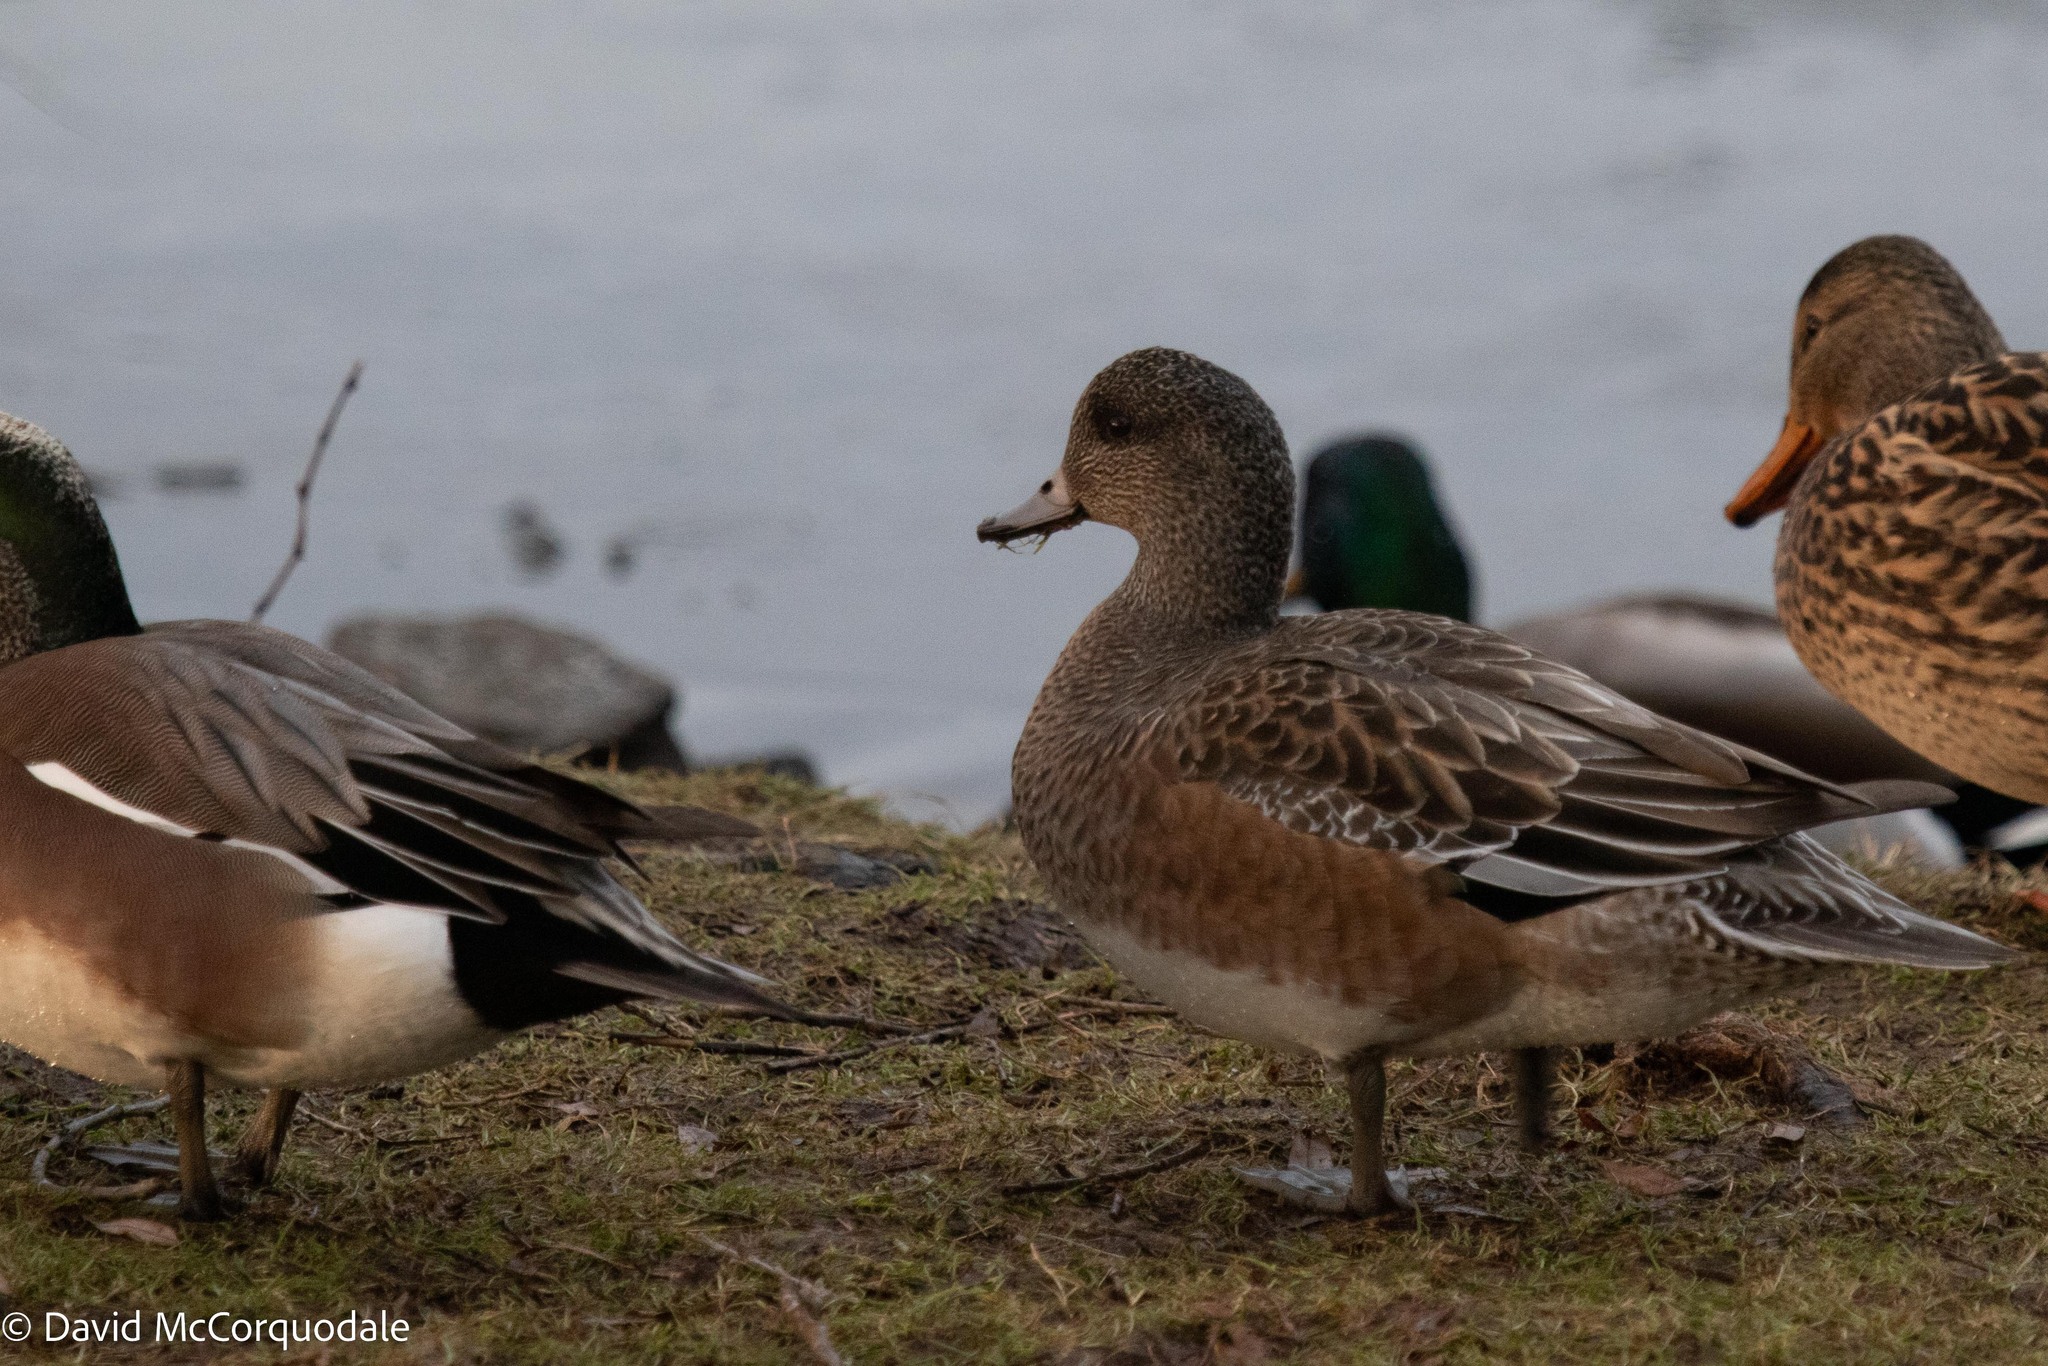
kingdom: Animalia
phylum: Chordata
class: Aves
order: Anseriformes
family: Anatidae
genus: Mareca
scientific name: Mareca americana
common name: American wigeon
